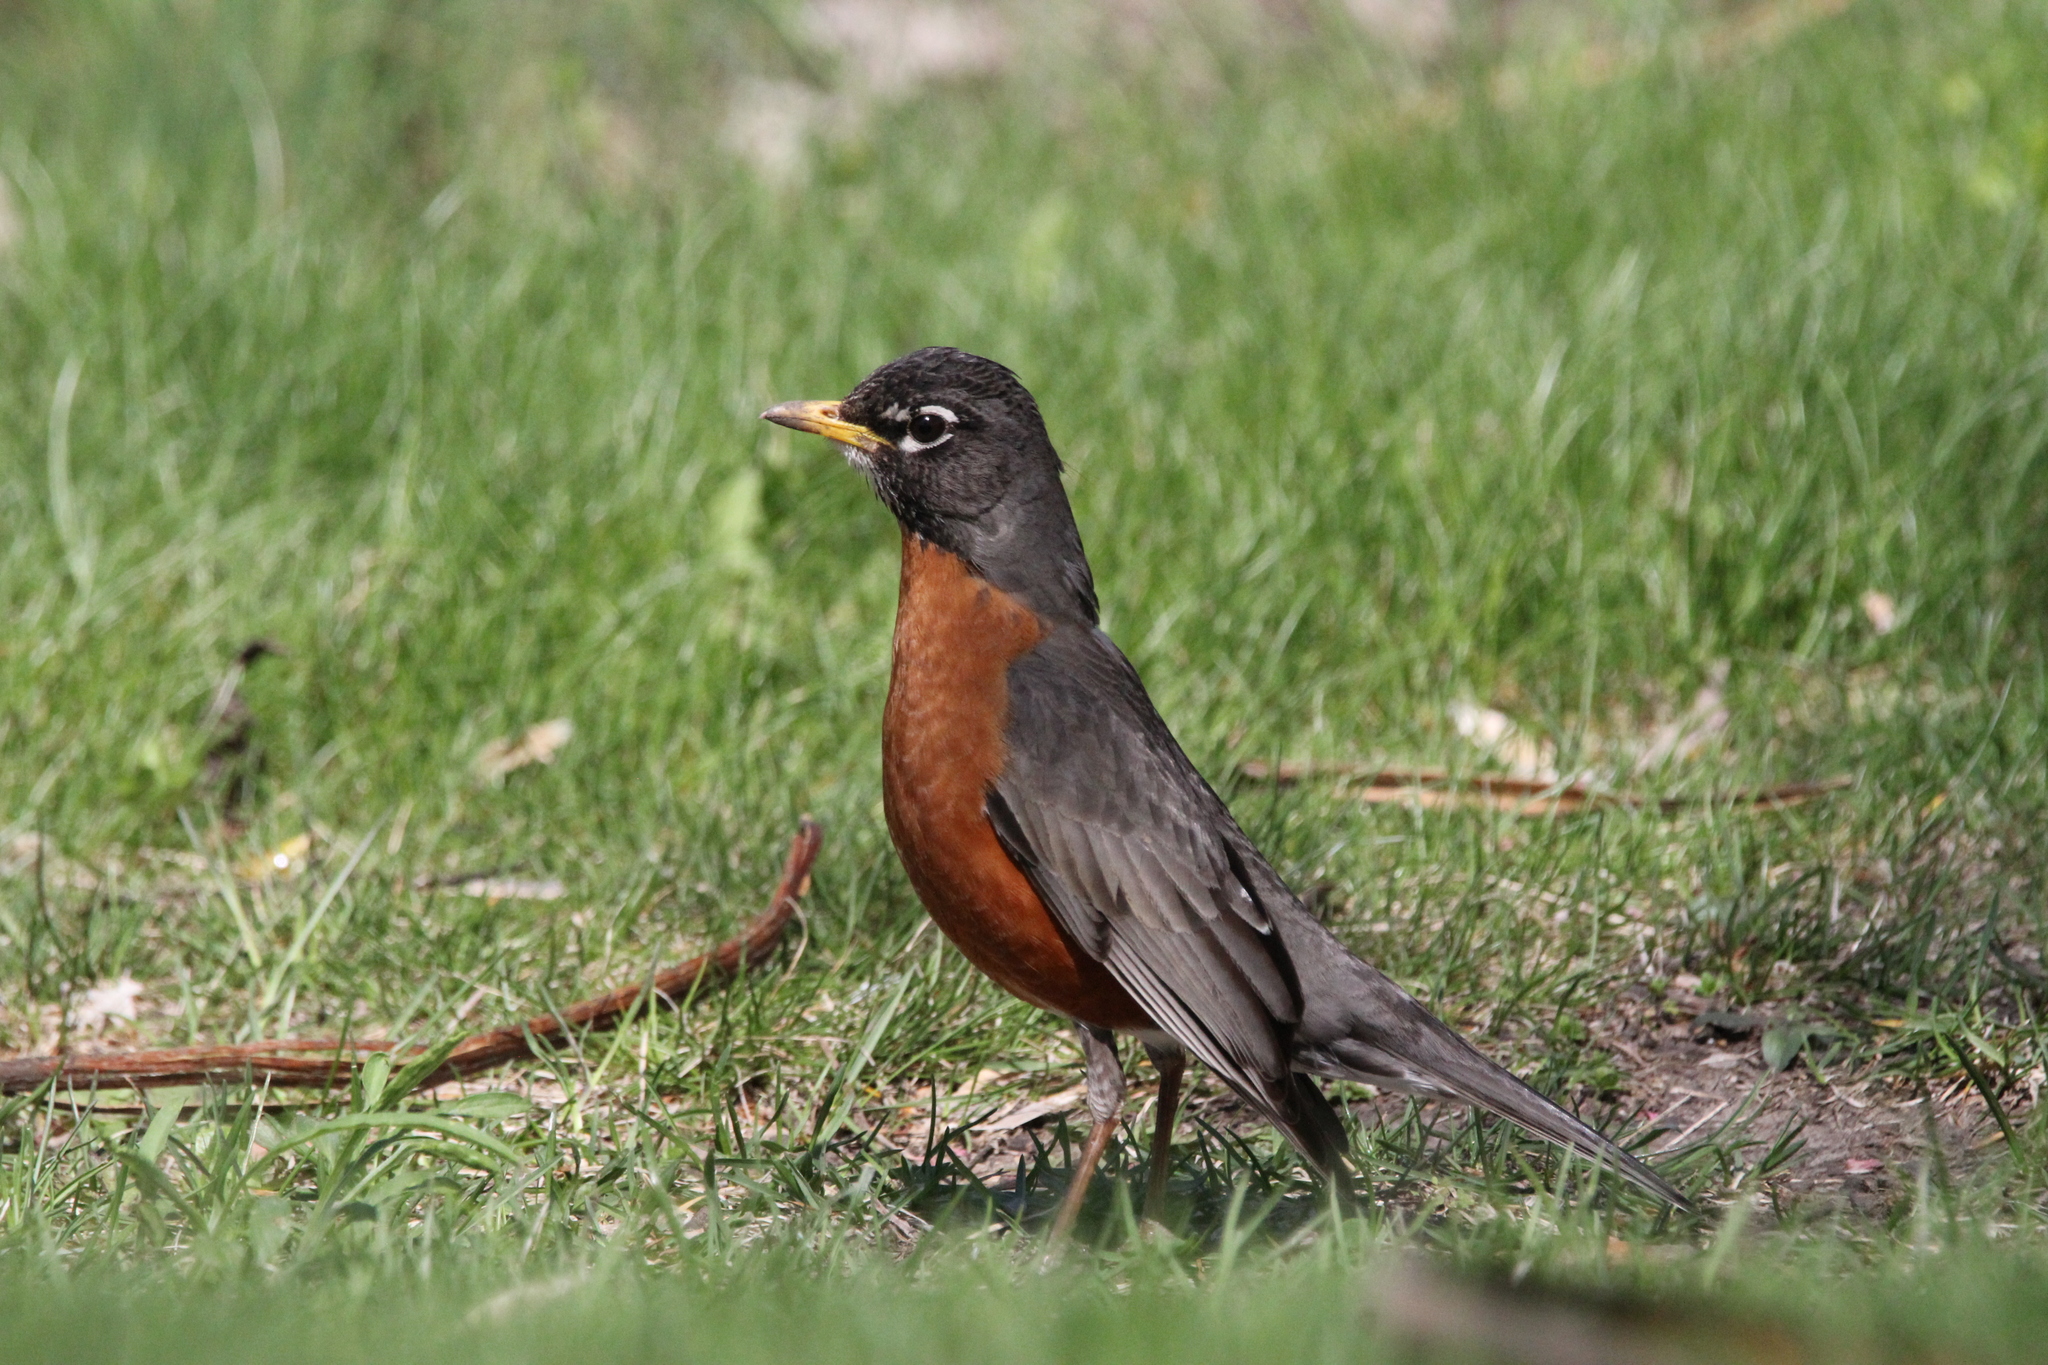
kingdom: Animalia
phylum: Chordata
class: Aves
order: Passeriformes
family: Turdidae
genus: Turdus
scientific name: Turdus migratorius
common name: American robin
